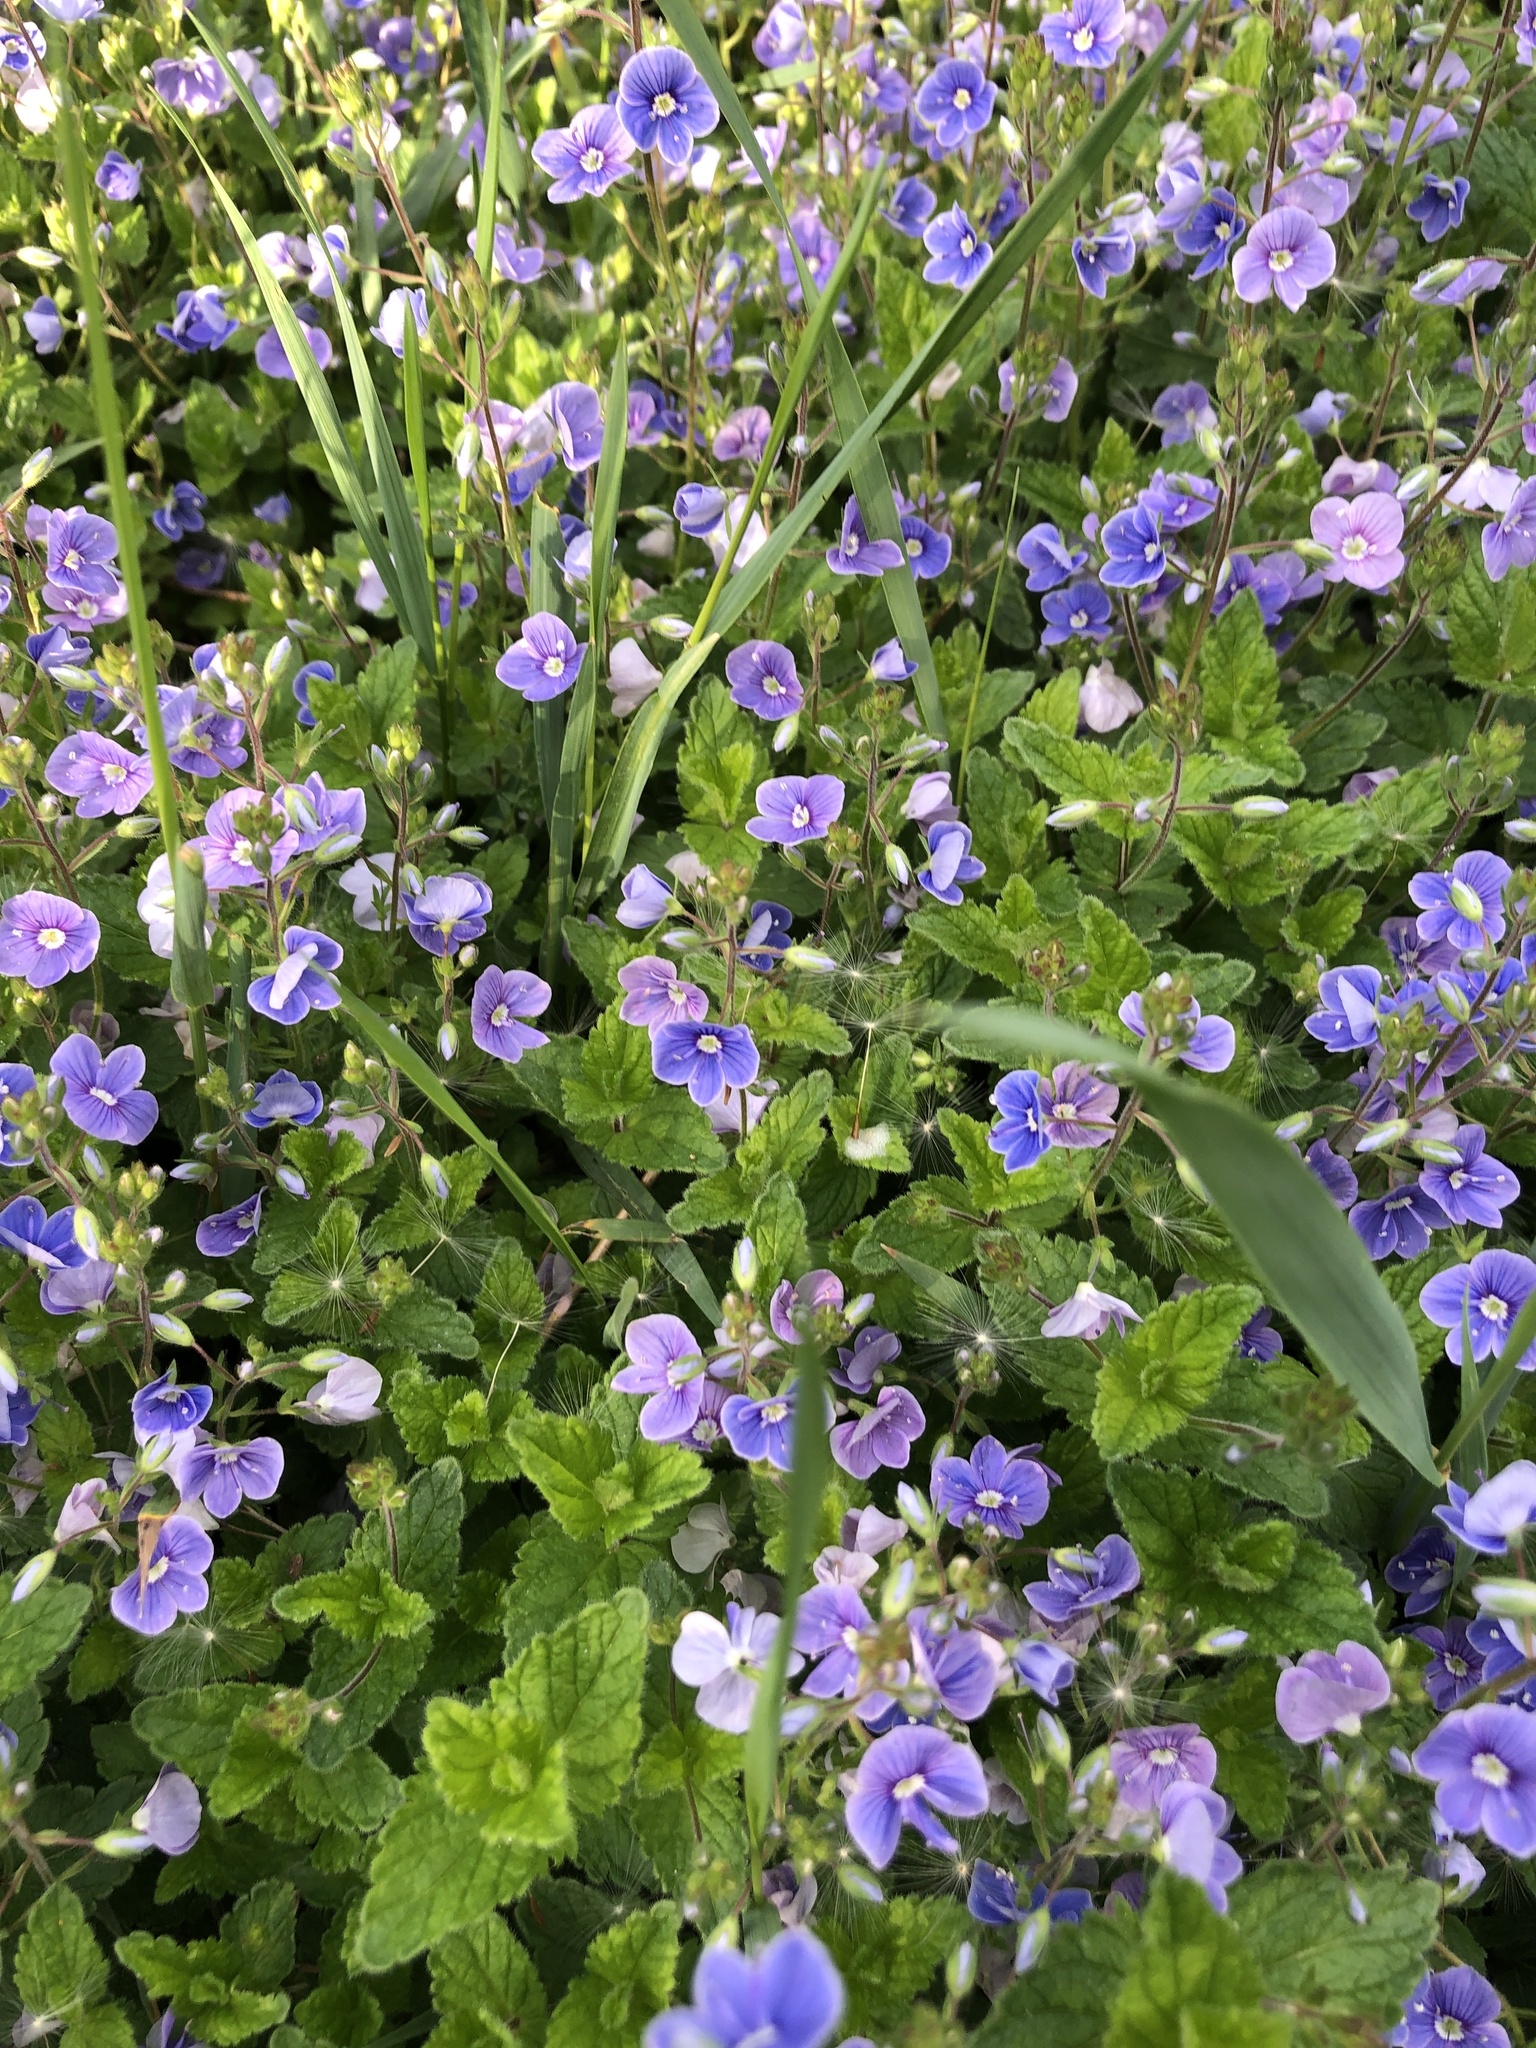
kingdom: Plantae
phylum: Tracheophyta
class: Magnoliopsida
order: Lamiales
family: Plantaginaceae
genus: Veronica
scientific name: Veronica chamaedrys
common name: Germander speedwell
